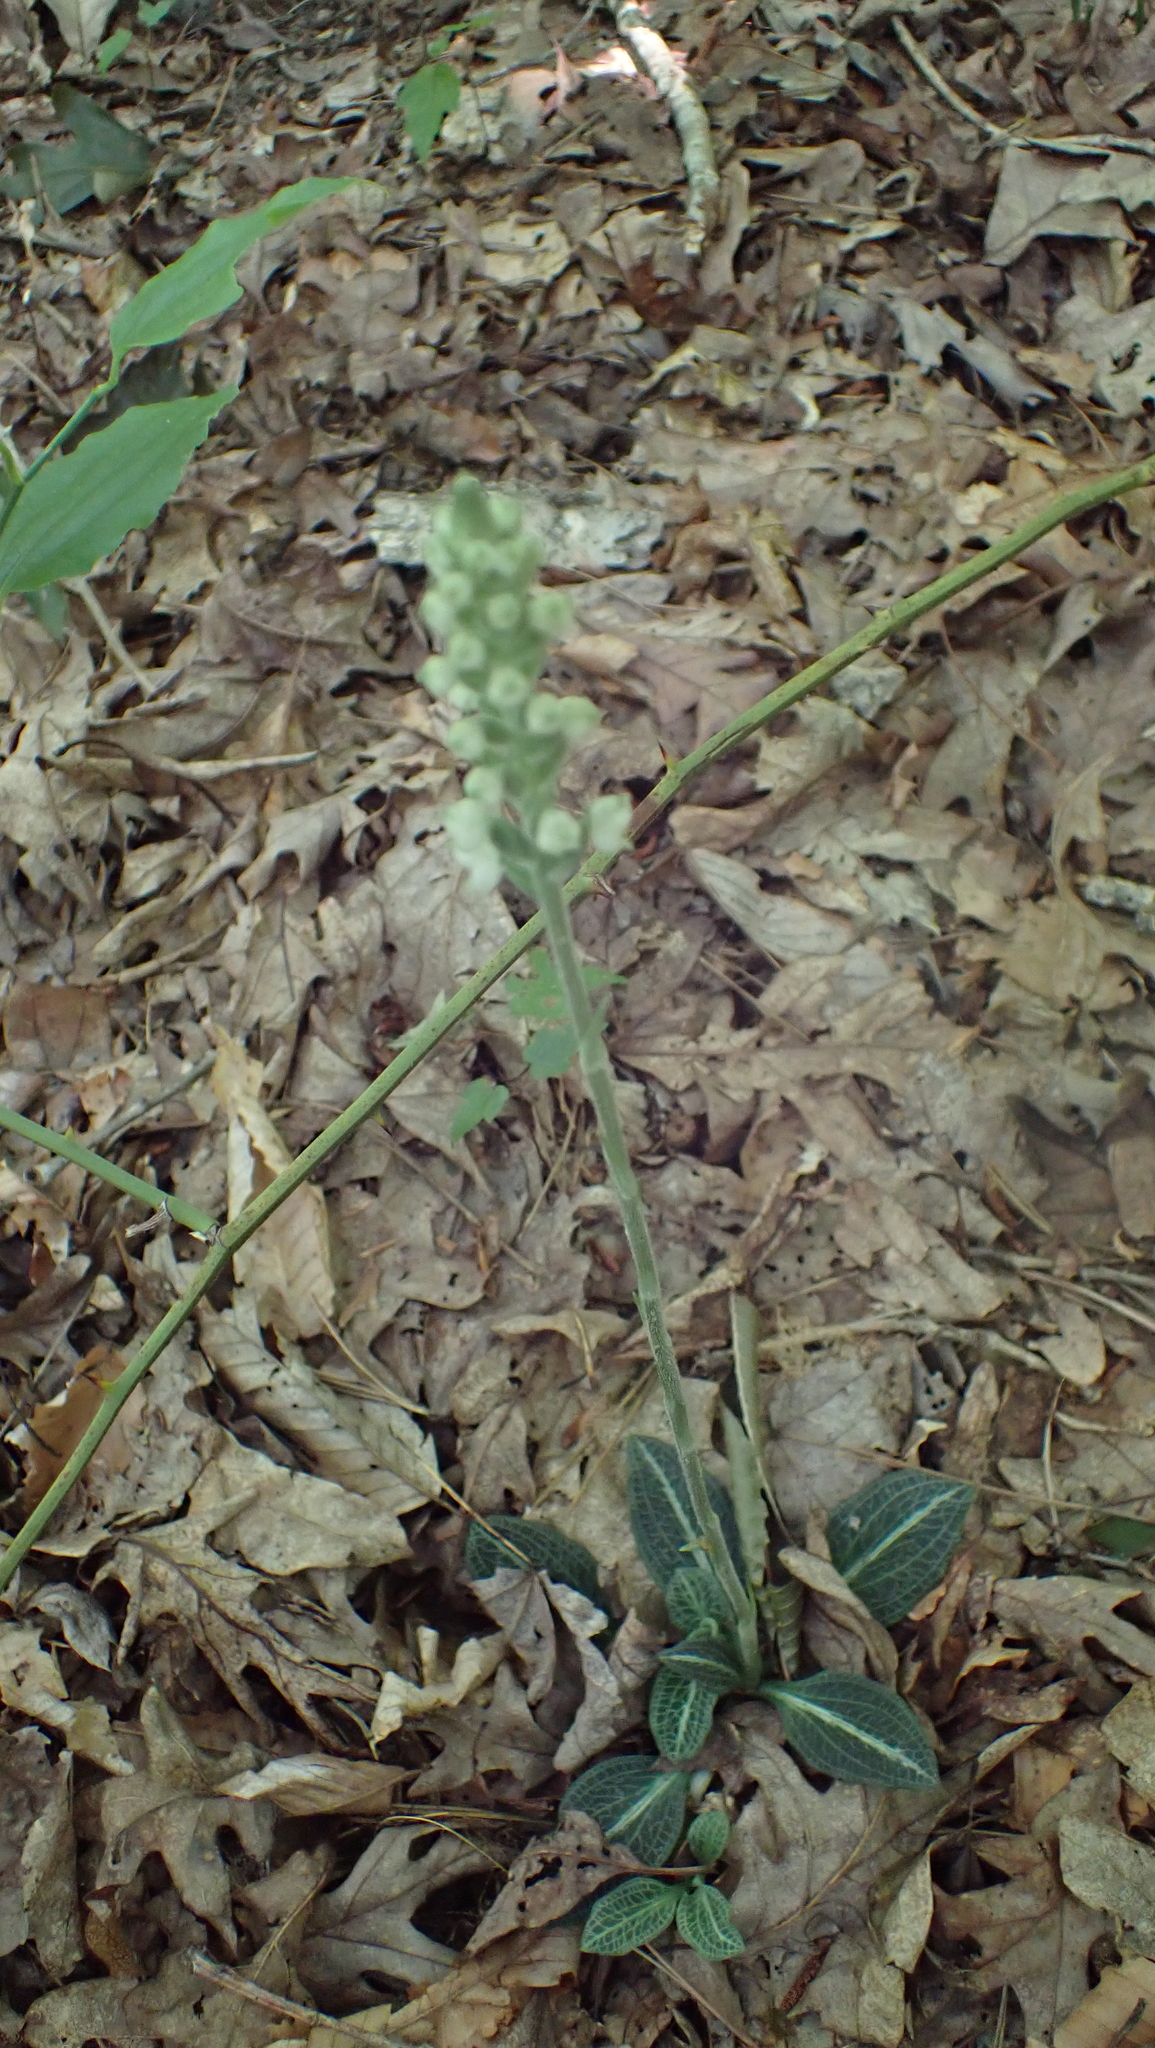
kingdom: Plantae
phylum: Tracheophyta
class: Liliopsida
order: Asparagales
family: Orchidaceae
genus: Goodyera
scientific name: Goodyera pubescens
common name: Downy rattlesnake-plantain
